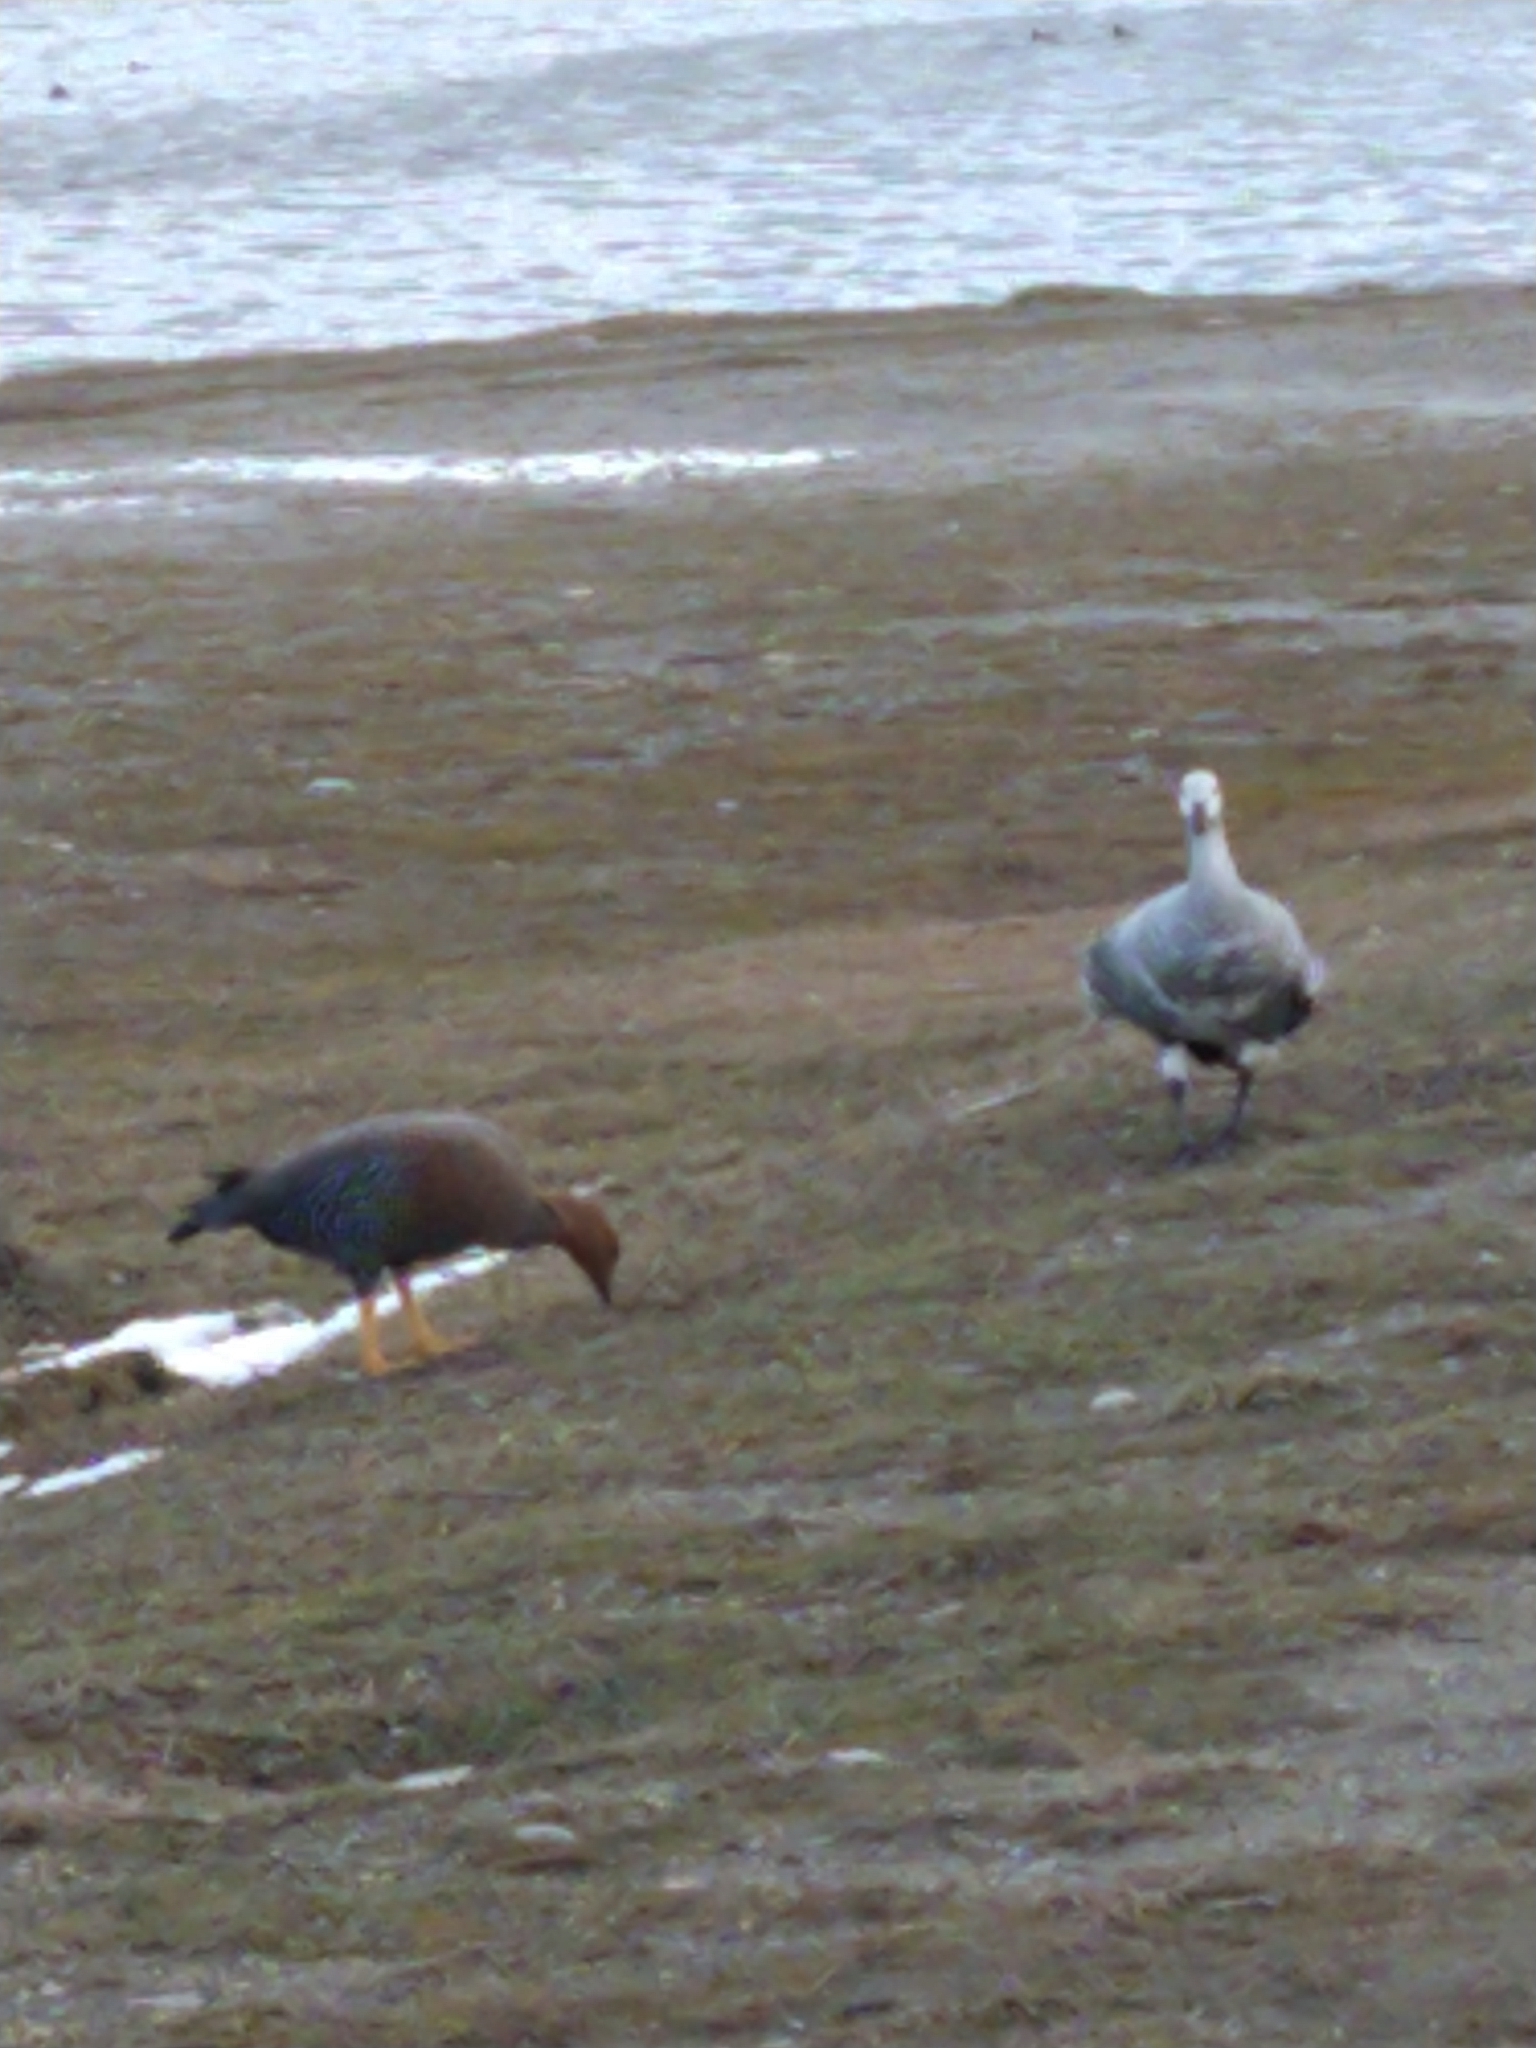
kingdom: Animalia
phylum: Chordata
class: Aves
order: Anseriformes
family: Anatidae
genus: Chloephaga
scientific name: Chloephaga picta
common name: Upland goose
